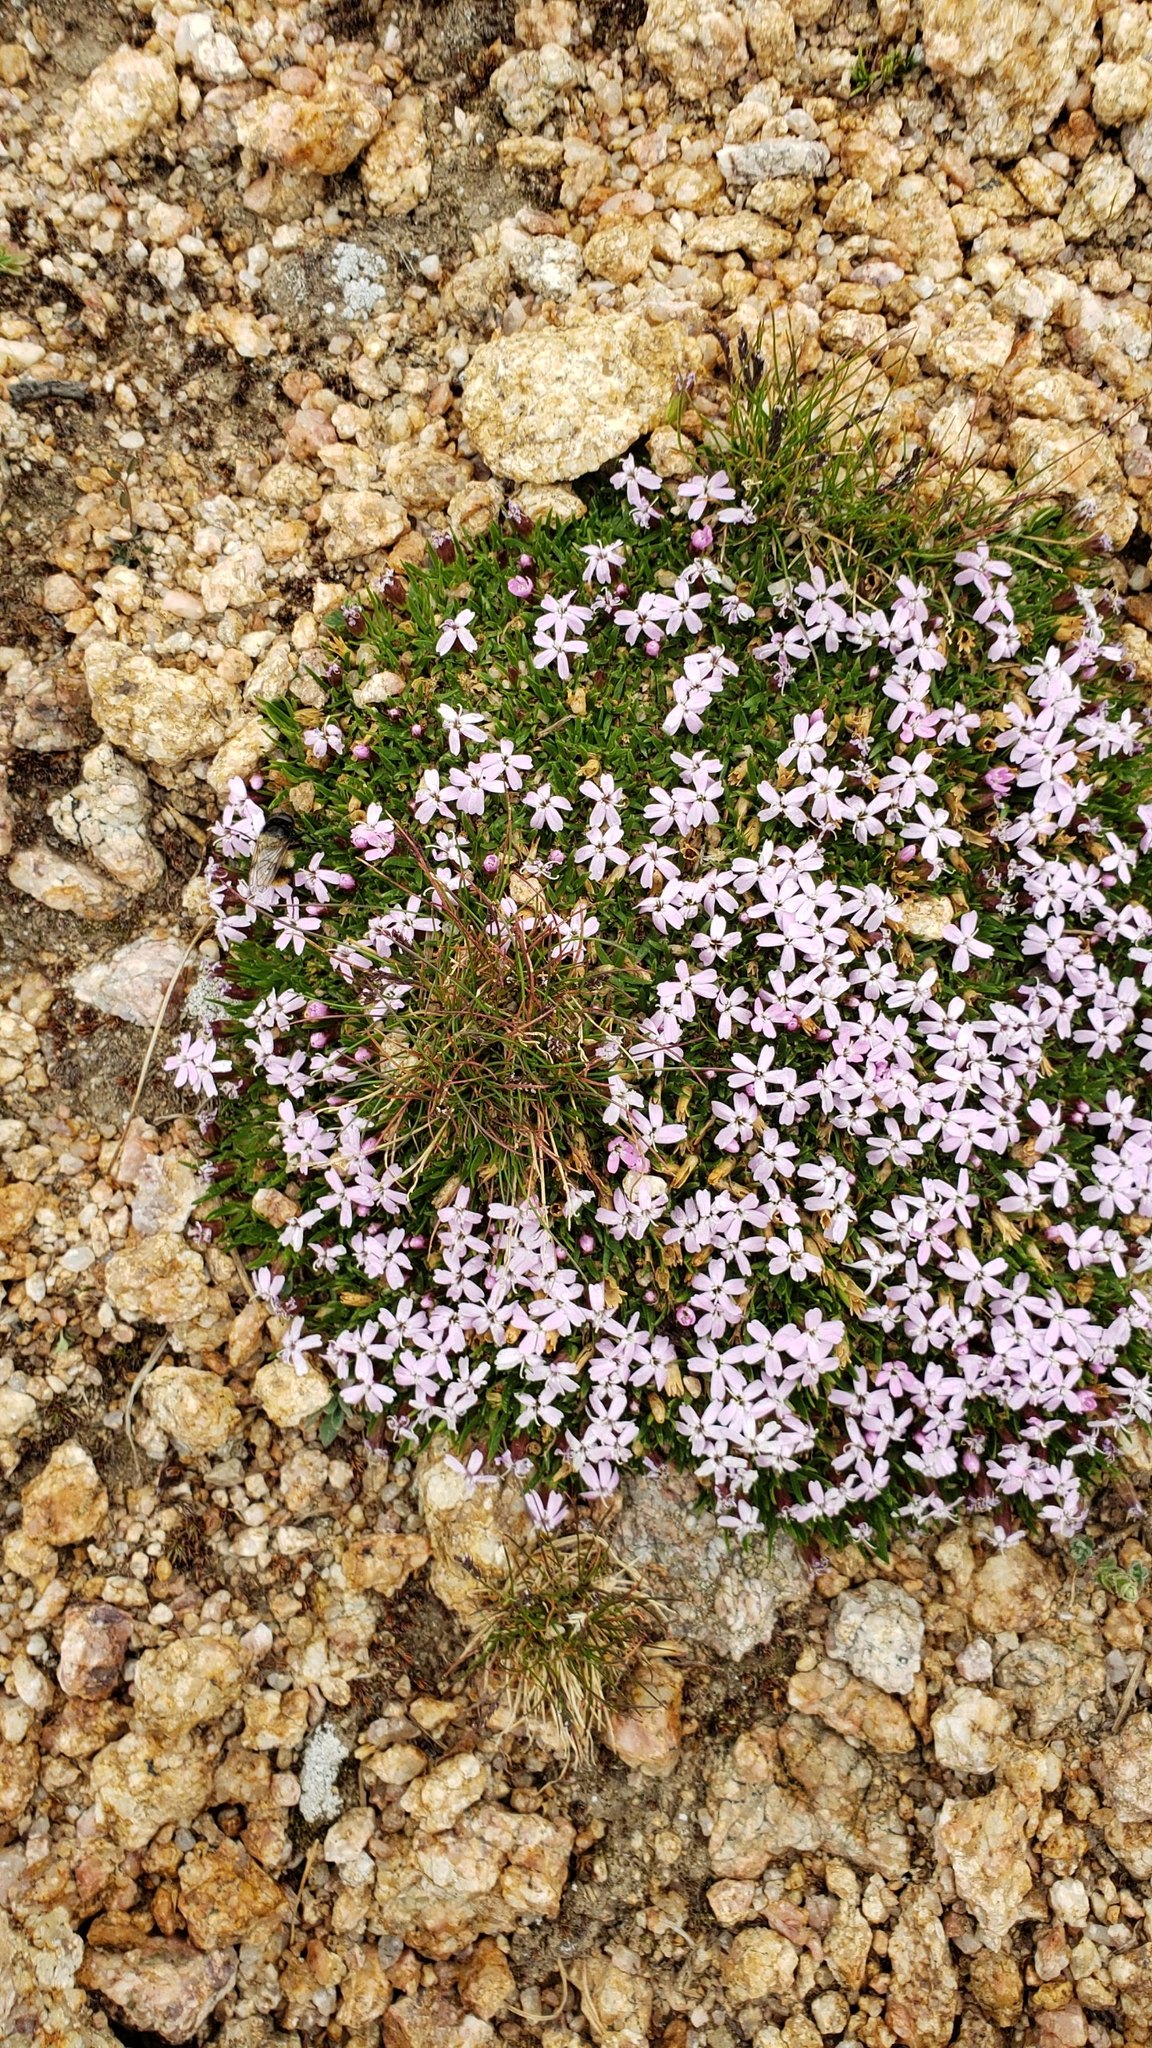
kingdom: Plantae
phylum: Tracheophyta
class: Magnoliopsida
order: Caryophyllales
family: Caryophyllaceae
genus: Silene
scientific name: Silene acaulis
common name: Moss campion
